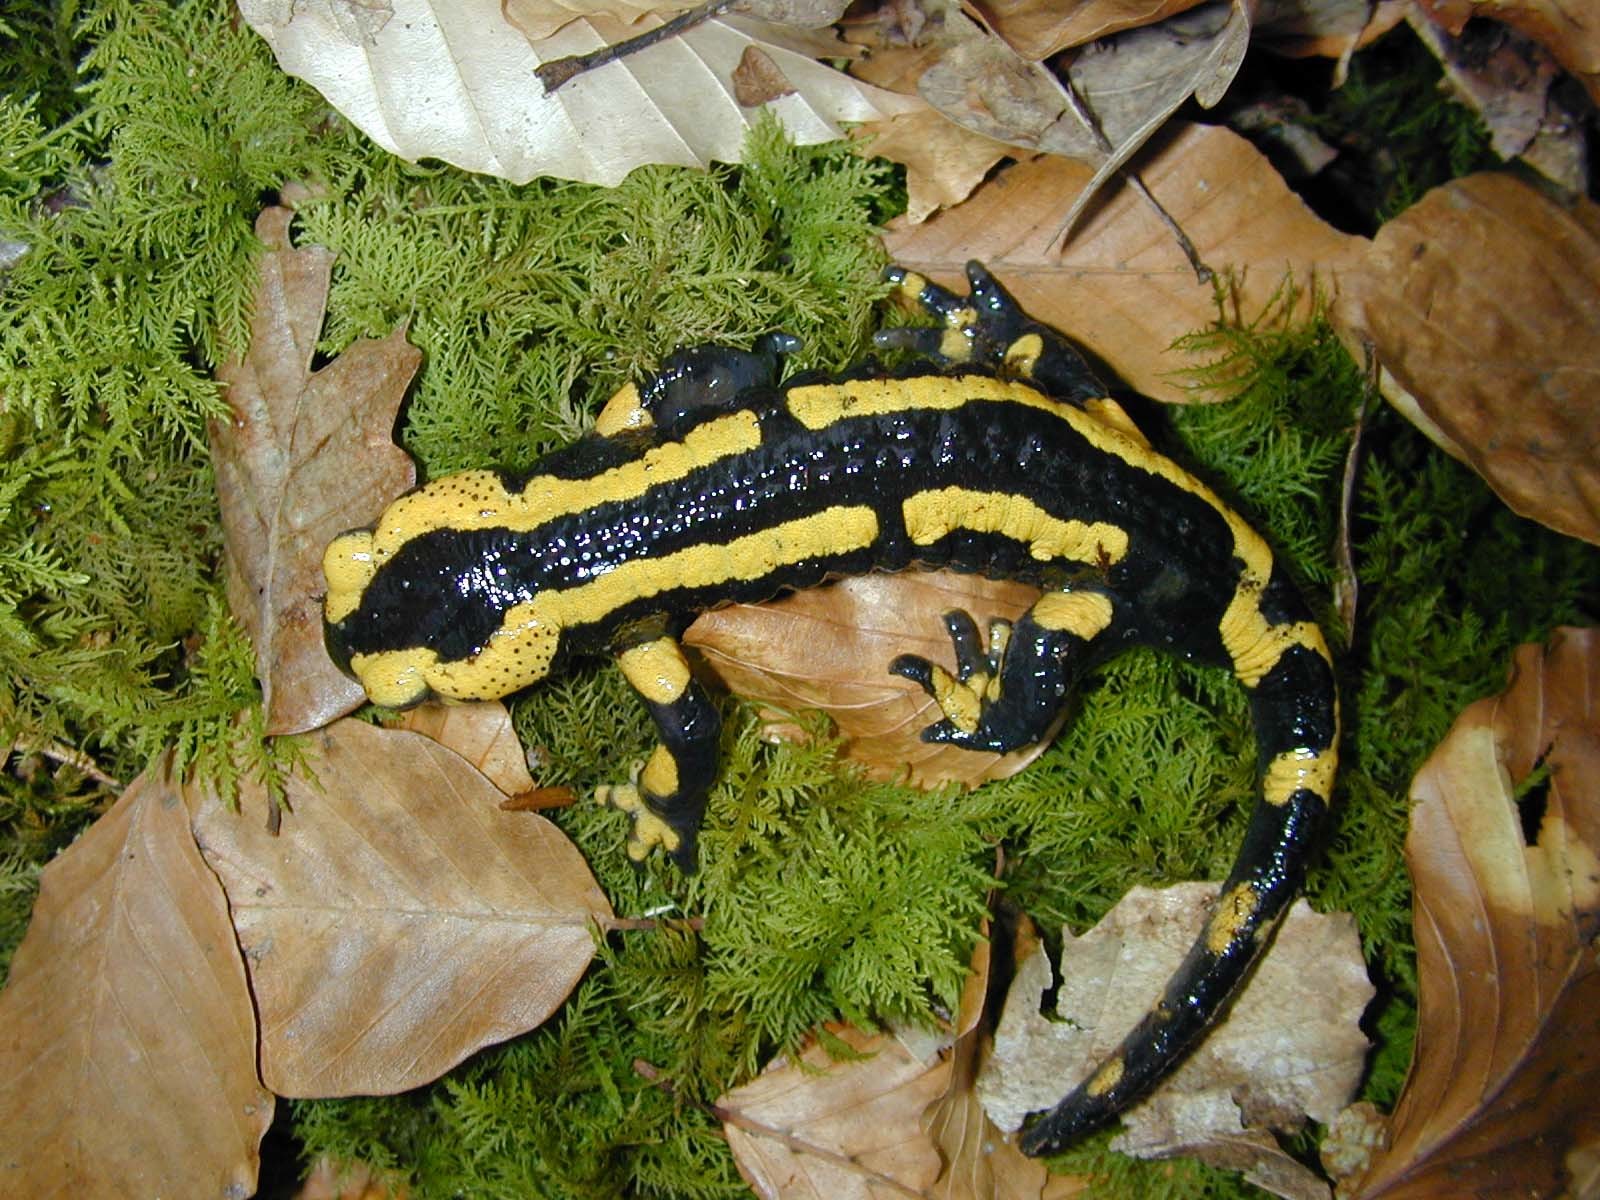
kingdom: Animalia
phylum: Chordata
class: Amphibia
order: Caudata
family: Salamandridae
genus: Salamandra
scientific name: Salamandra salamandra
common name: Fire salamander
